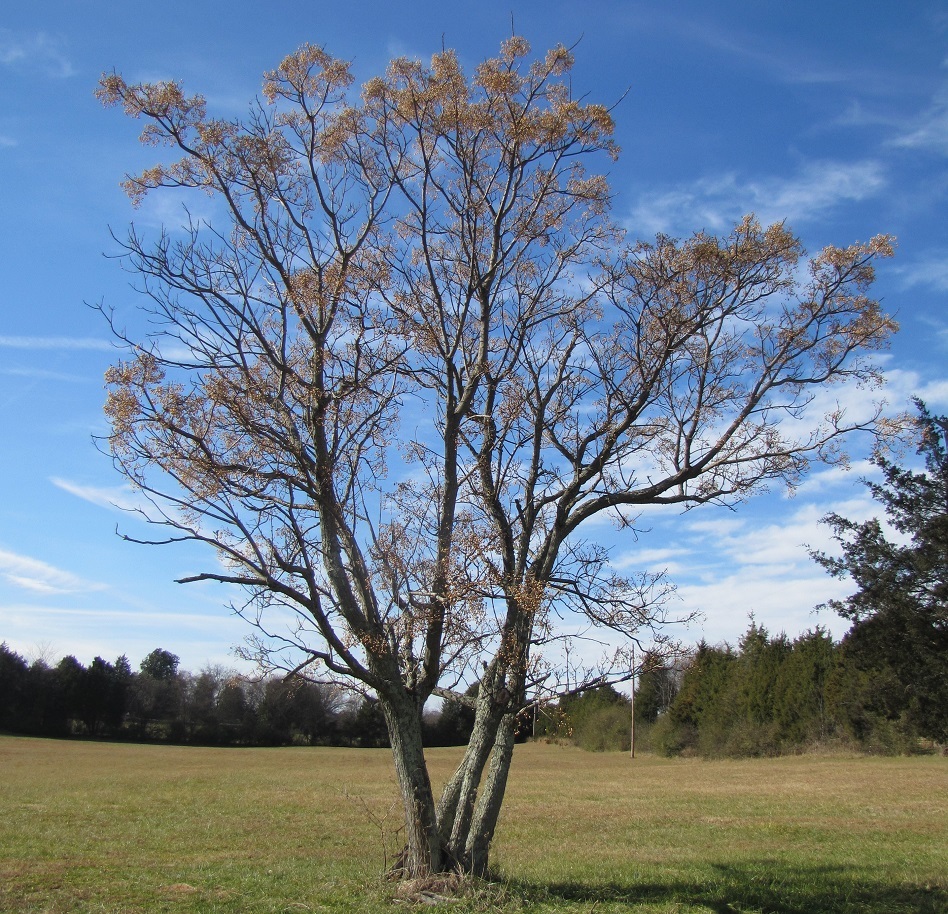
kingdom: Plantae
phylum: Tracheophyta
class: Magnoliopsida
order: Sapindales
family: Meliaceae
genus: Melia
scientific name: Melia azedarach
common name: Chinaberrytree
